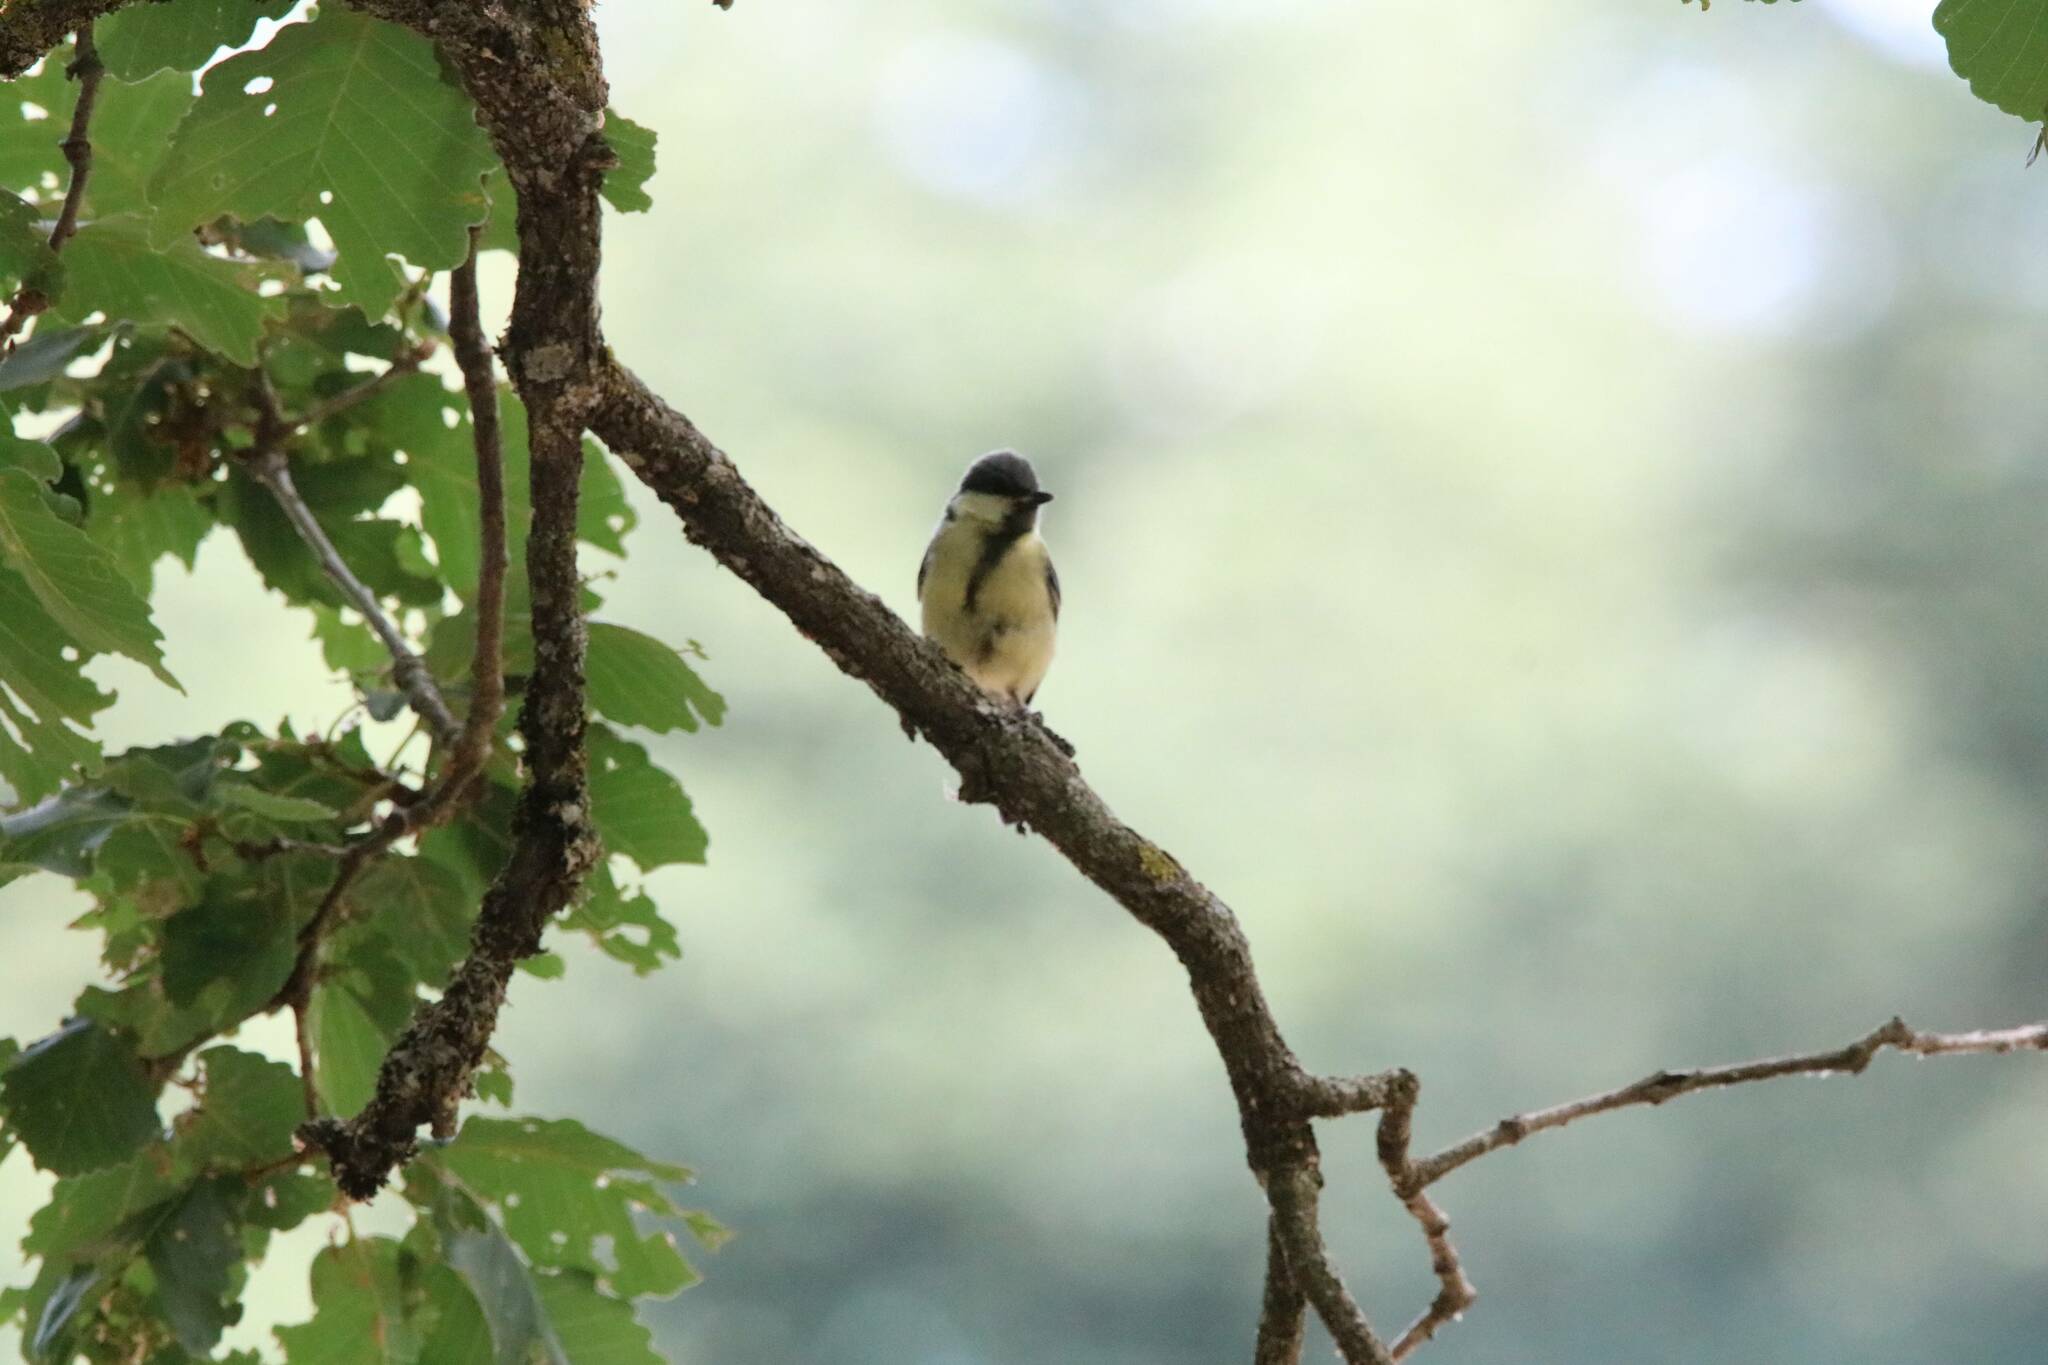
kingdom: Animalia
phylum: Chordata
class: Aves
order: Passeriformes
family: Paridae
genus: Parus
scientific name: Parus major
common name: Great tit
